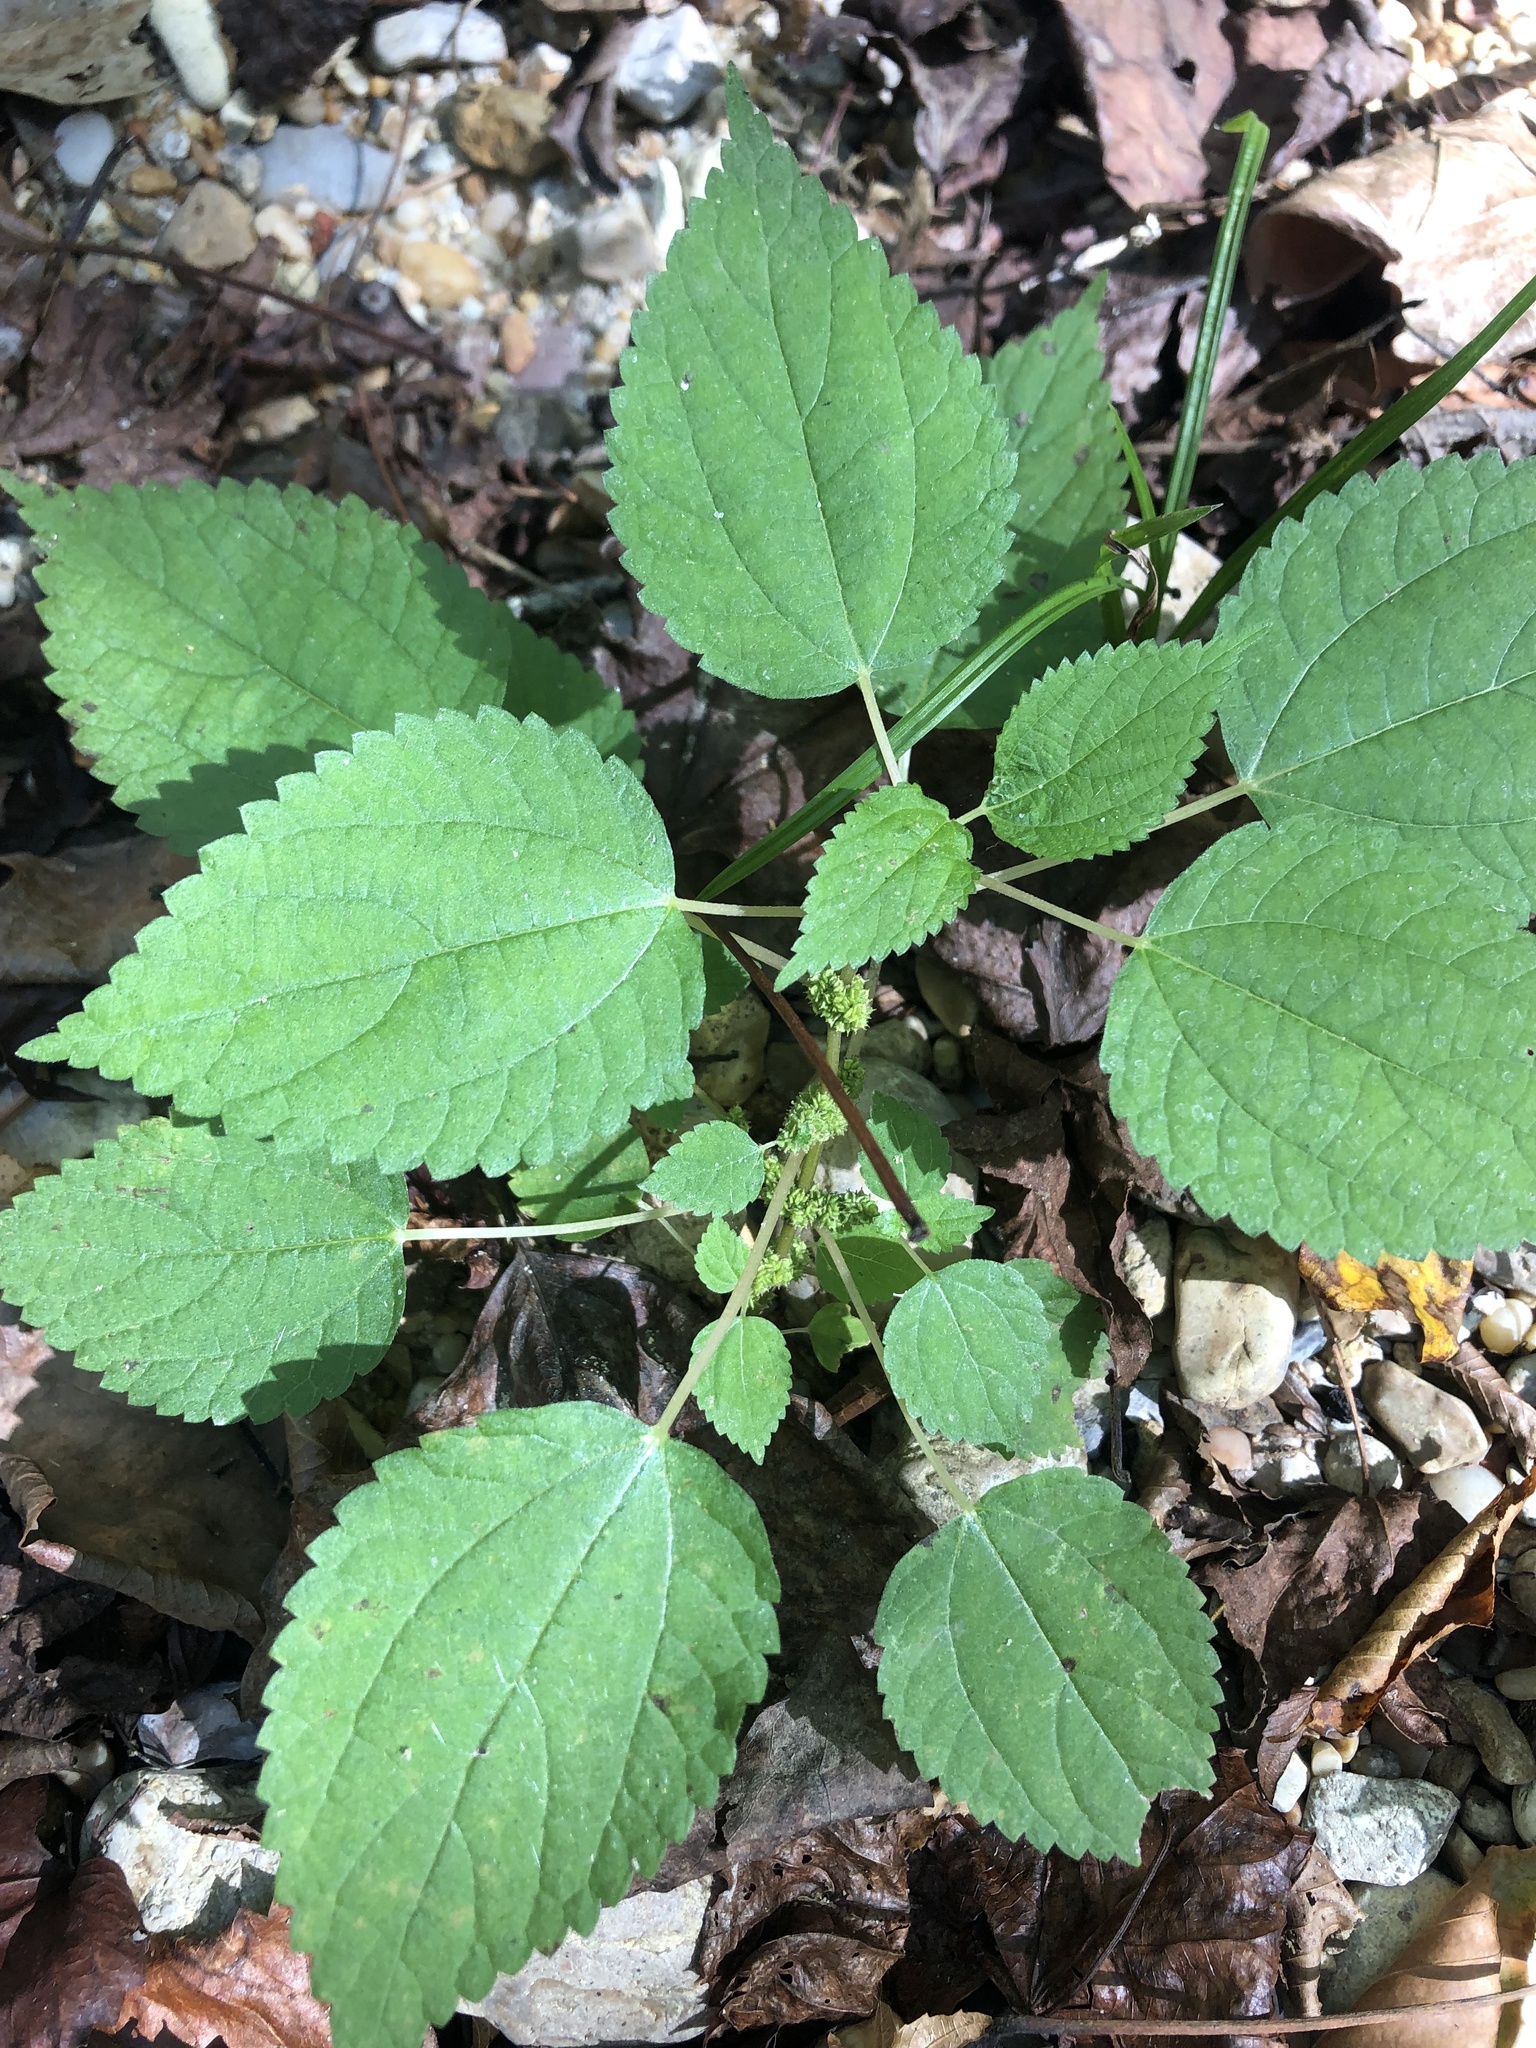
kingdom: Plantae
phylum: Tracheophyta
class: Magnoliopsida
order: Rosales
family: Urticaceae
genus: Boehmeria
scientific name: Boehmeria cylindrica
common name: Bog-hemp
